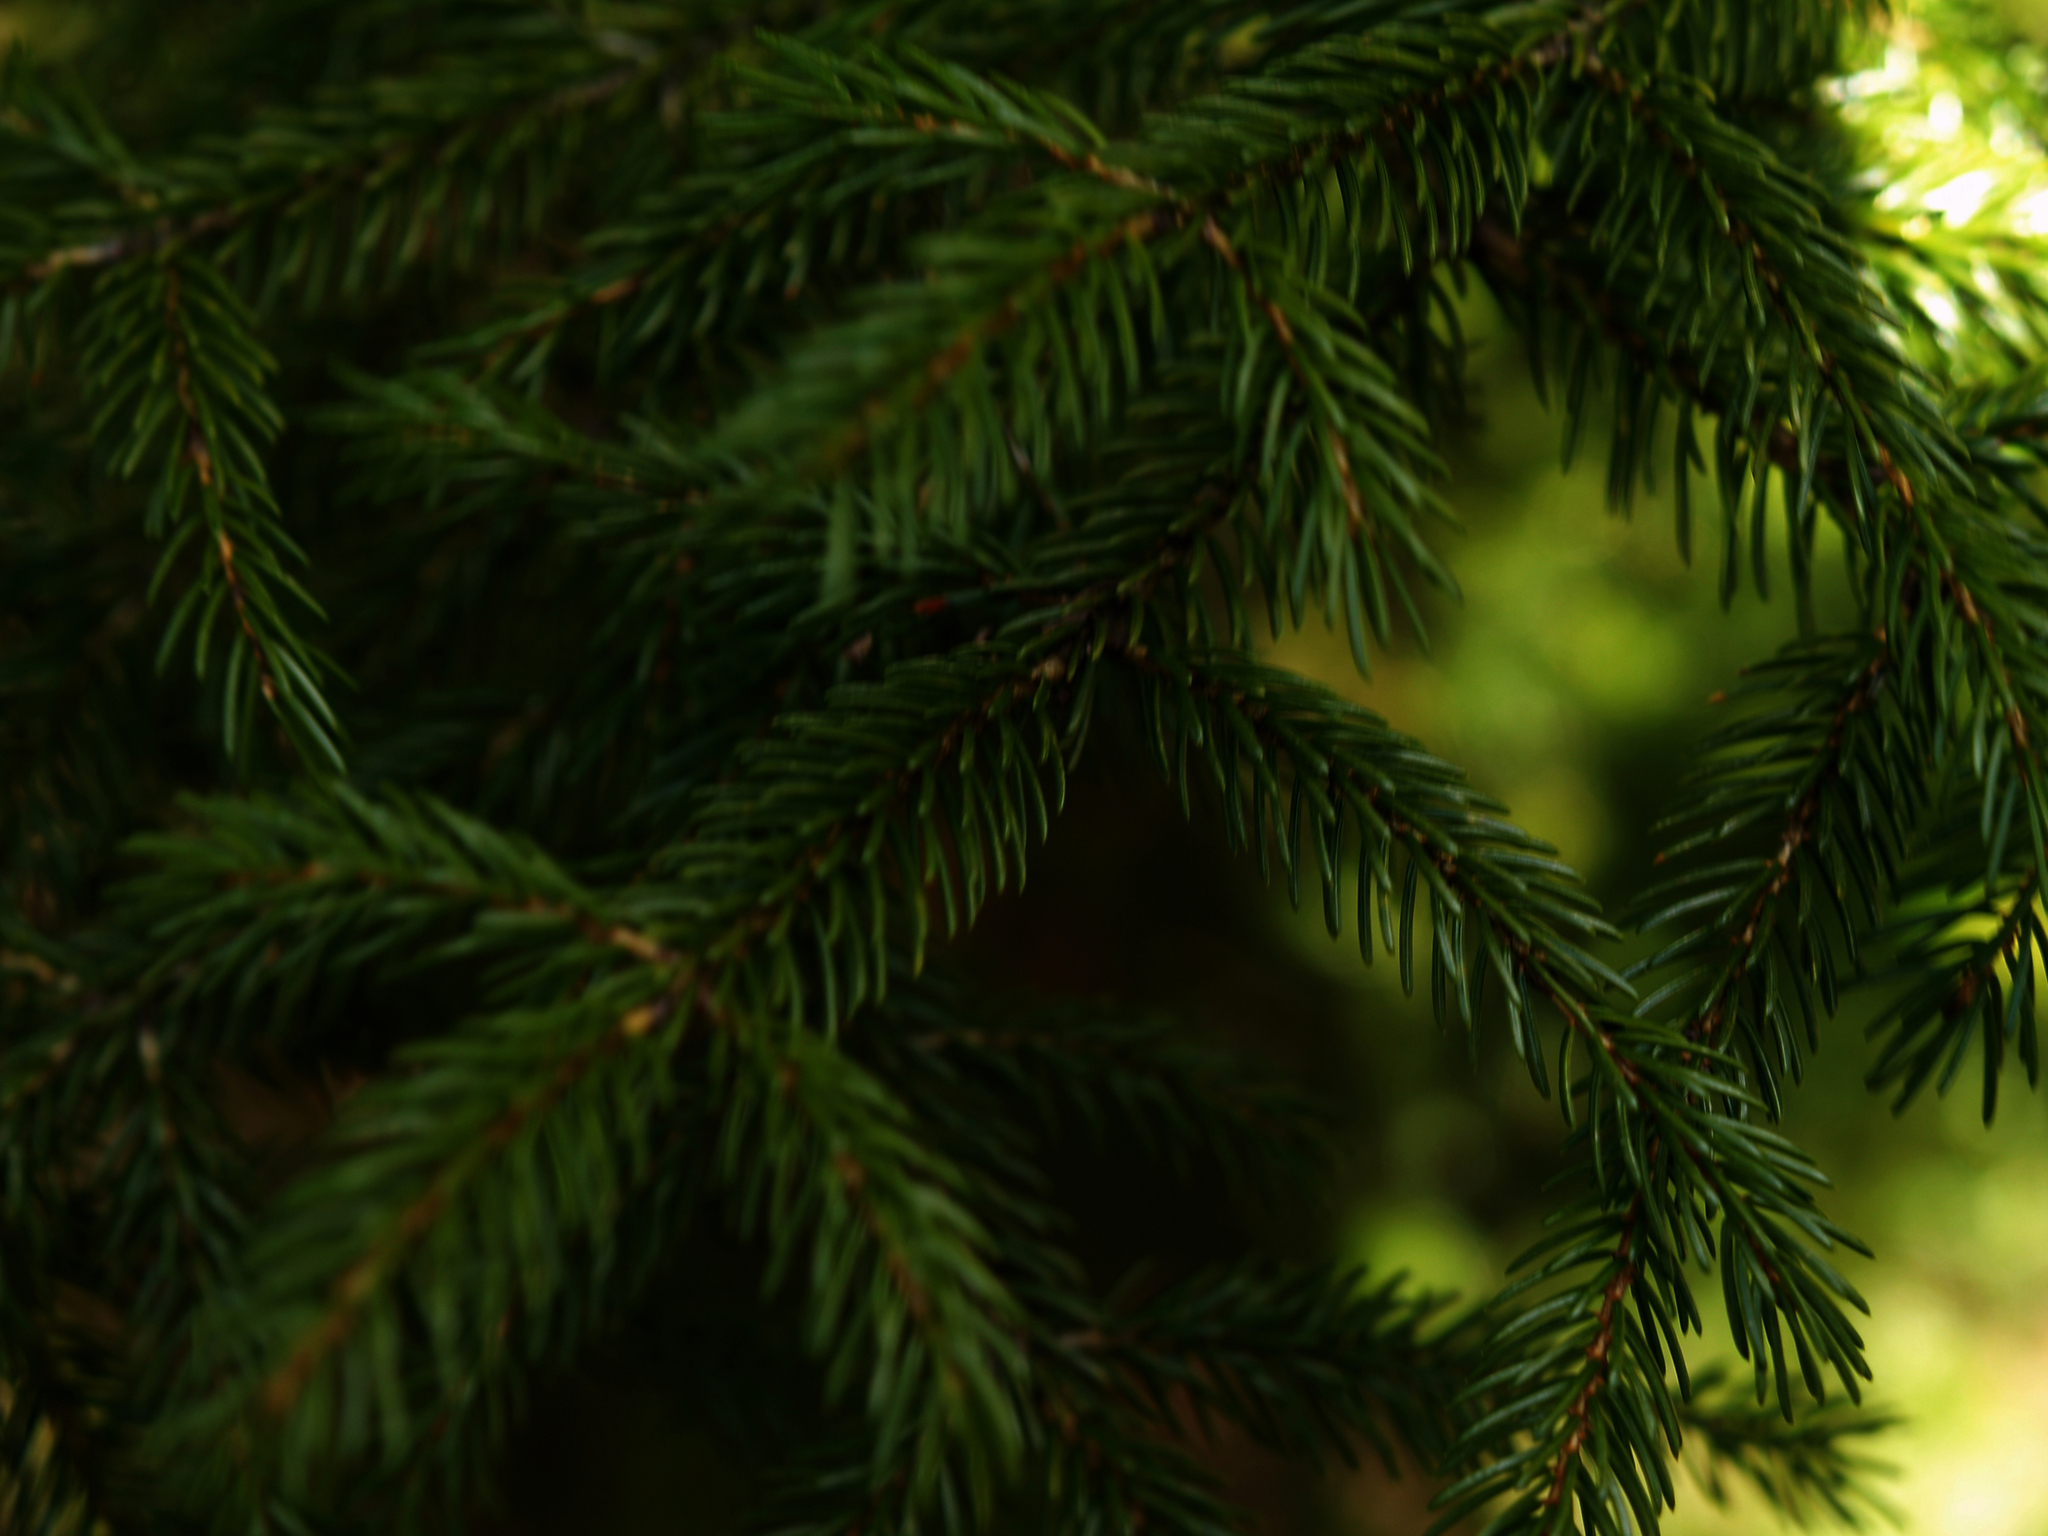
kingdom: Plantae
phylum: Tracheophyta
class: Pinopsida
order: Pinales
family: Pinaceae
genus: Picea
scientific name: Picea rubens
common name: Red spruce
